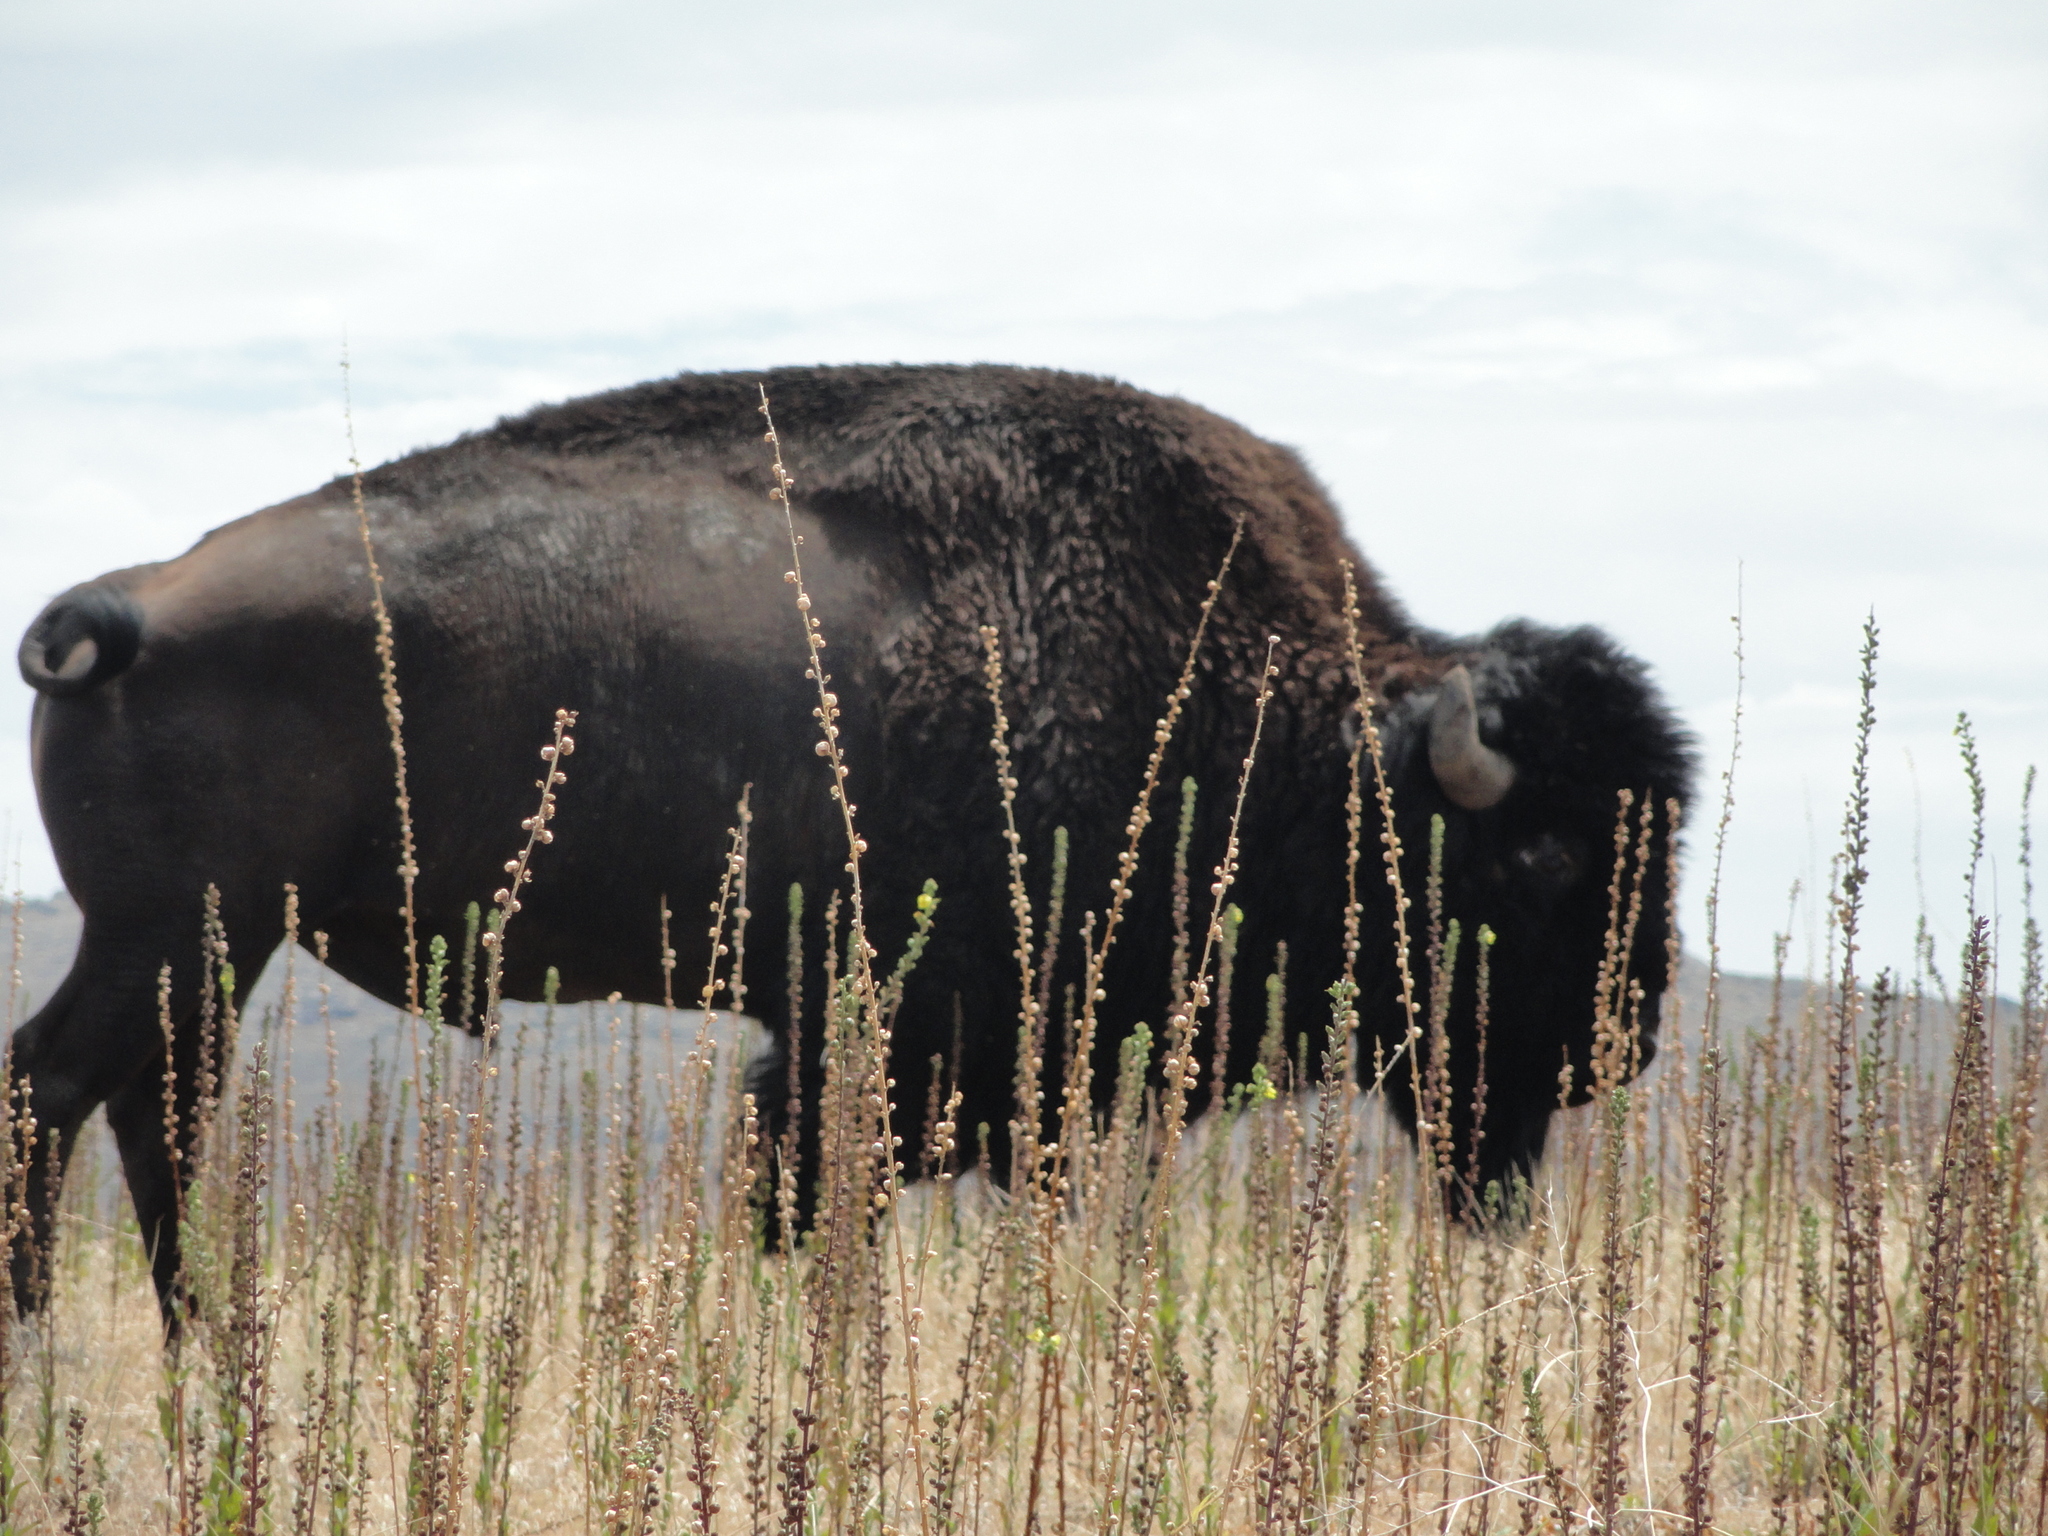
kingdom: Animalia
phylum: Chordata
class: Mammalia
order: Artiodactyla
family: Bovidae
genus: Bison
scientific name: Bison bison
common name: American bison
